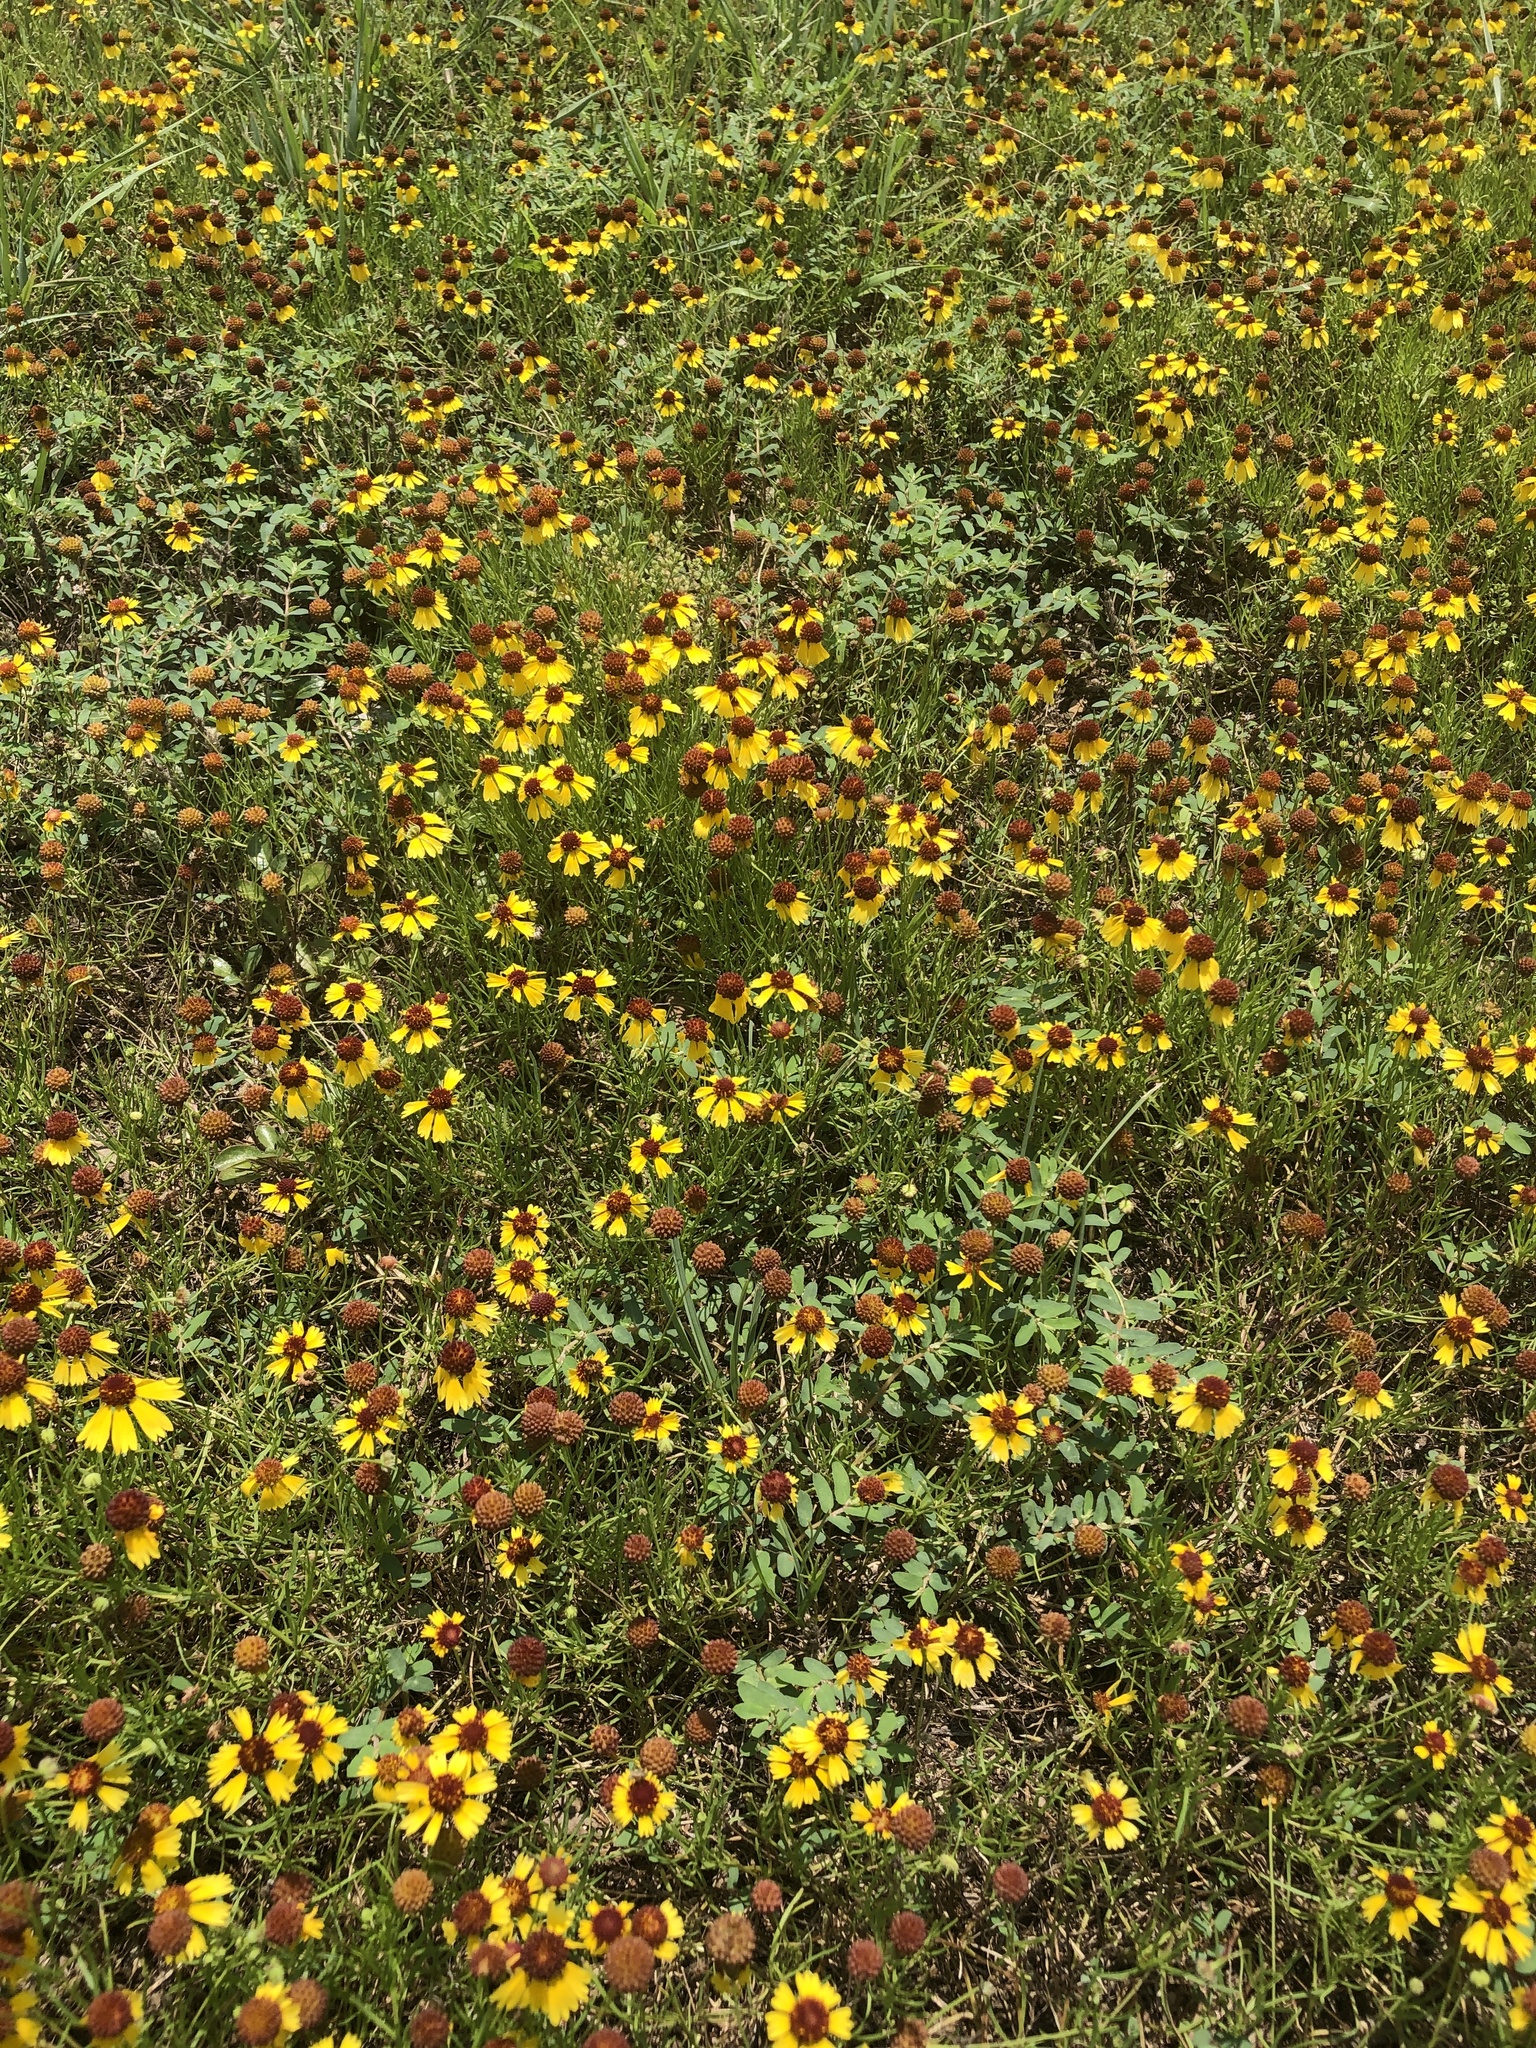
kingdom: Plantae
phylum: Tracheophyta
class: Magnoliopsida
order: Asterales
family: Asteraceae
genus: Helenium
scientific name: Helenium amarum
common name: Bitter sneezeweed
